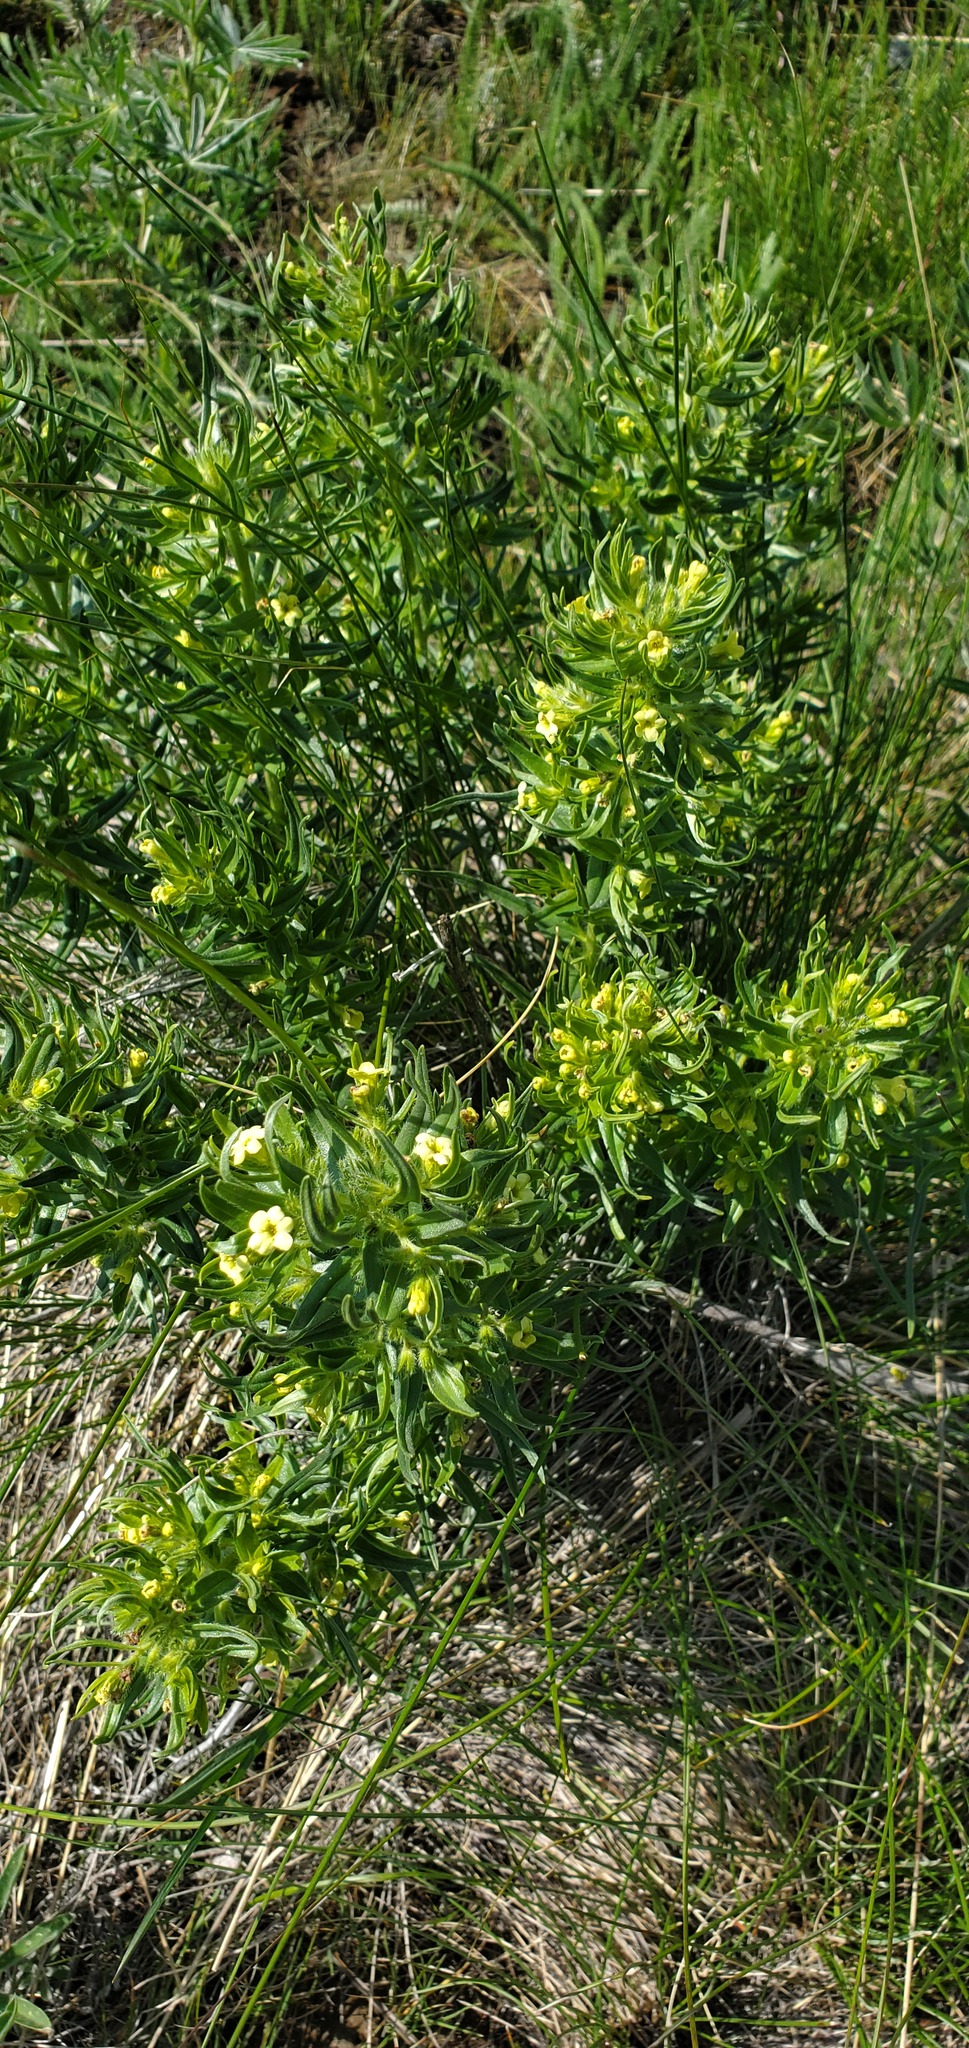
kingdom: Plantae
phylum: Tracheophyta
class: Magnoliopsida
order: Boraginales
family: Boraginaceae
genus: Lithospermum
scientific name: Lithospermum ruderale
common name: Western gromwell
